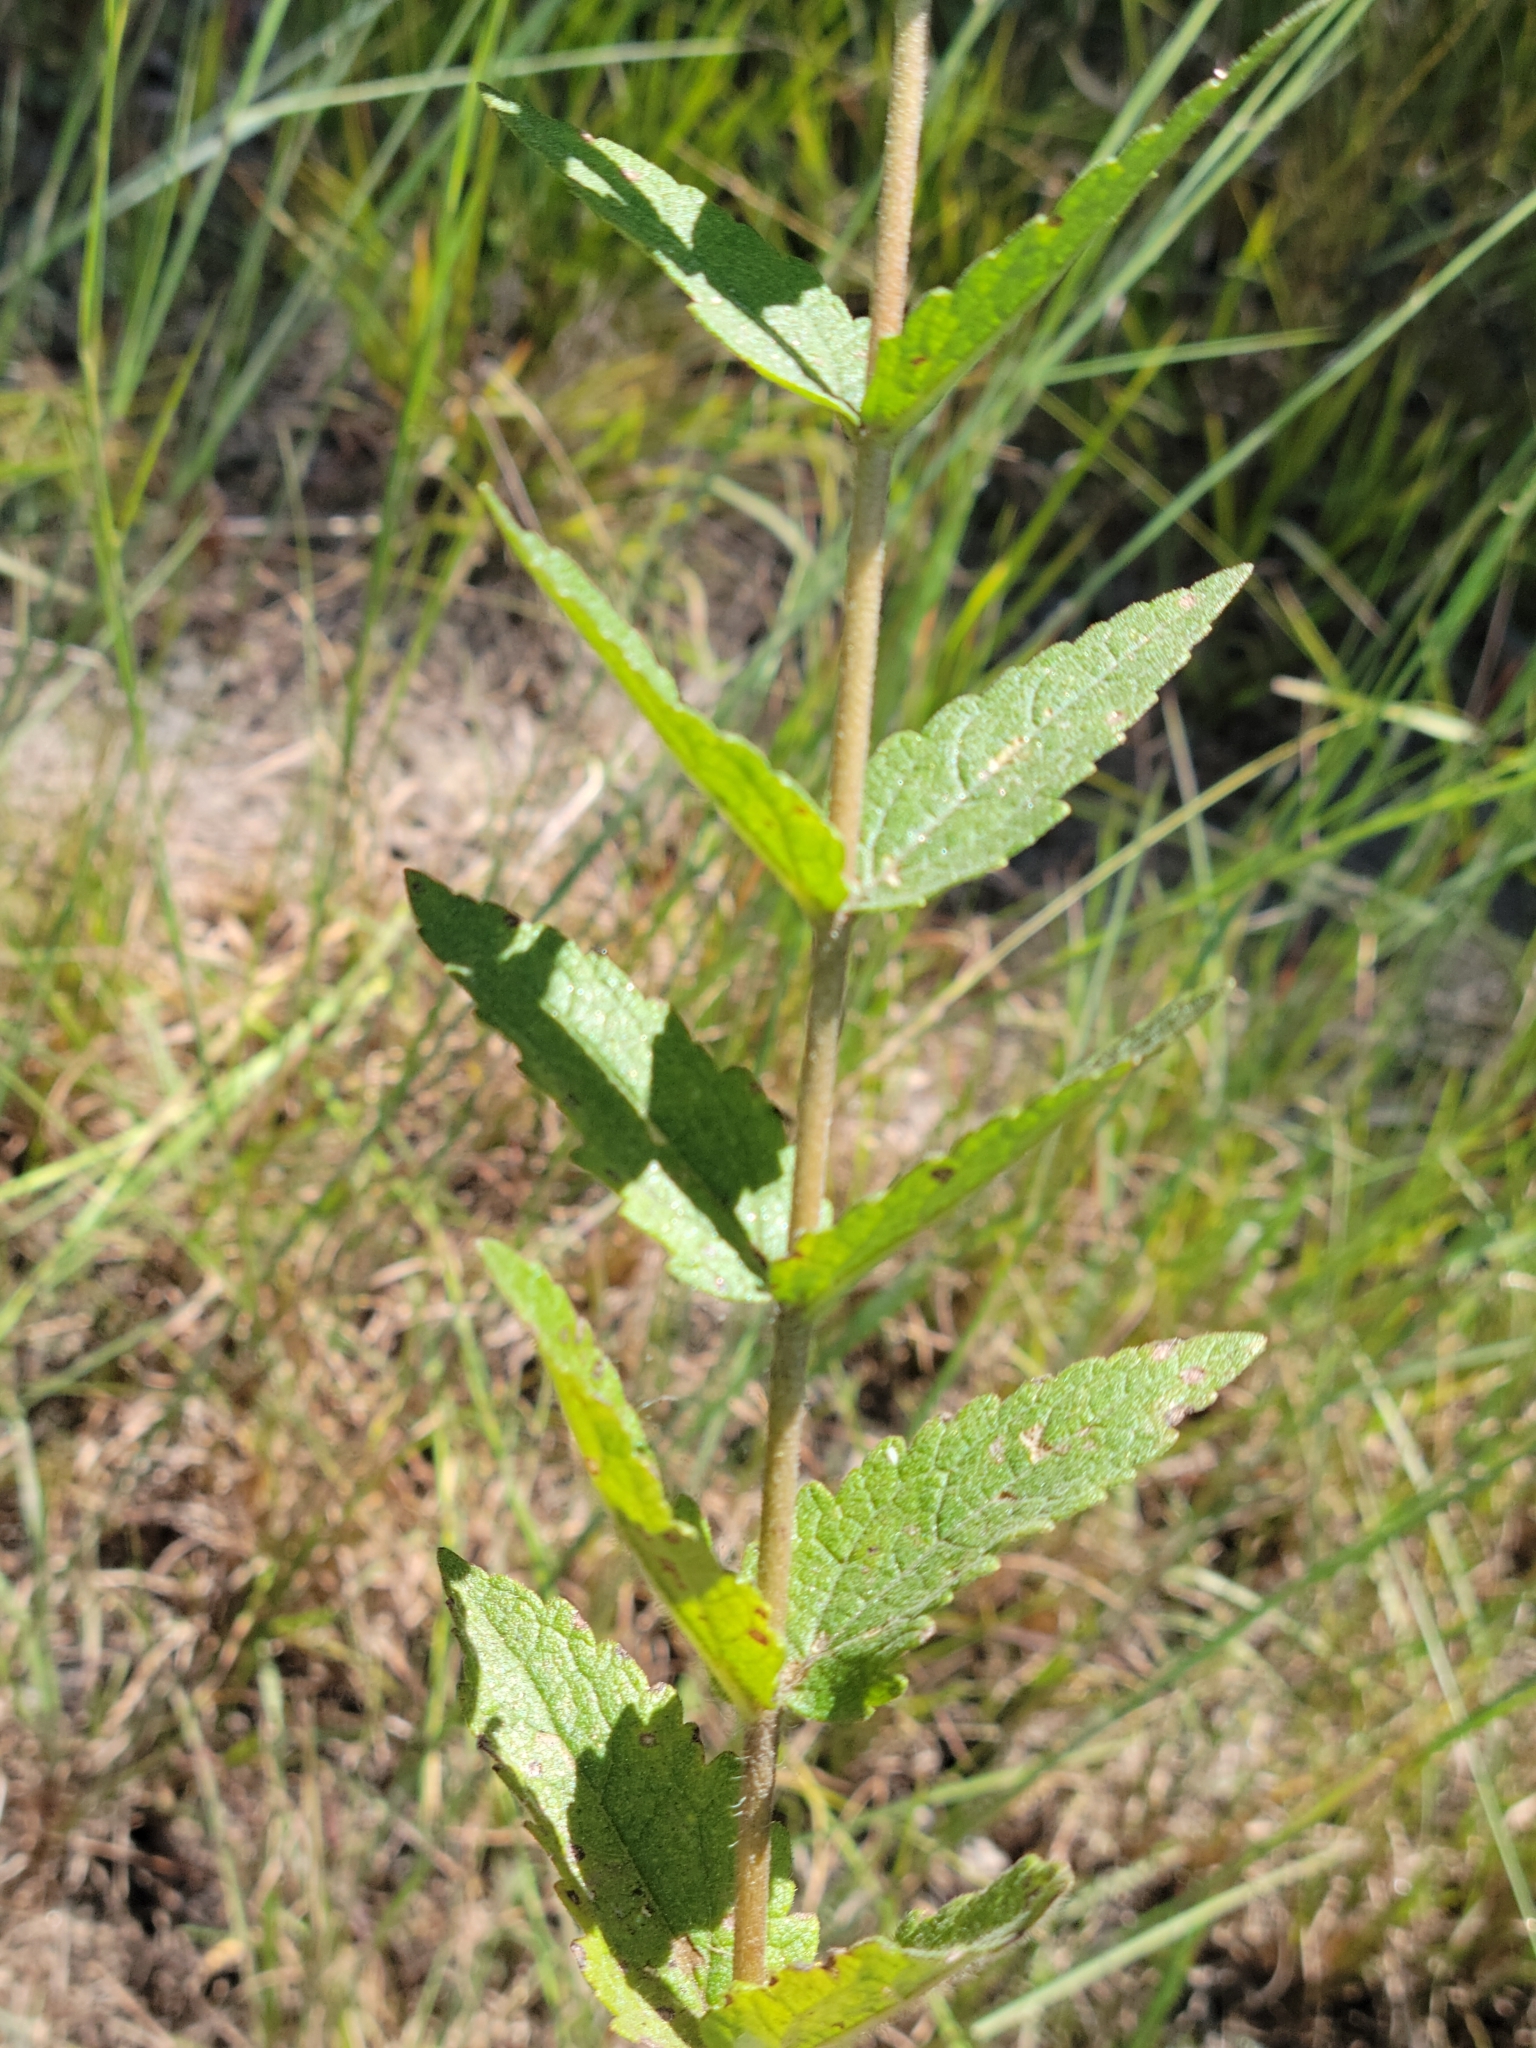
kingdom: Plantae
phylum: Tracheophyta
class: Magnoliopsida
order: Asterales
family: Asteraceae
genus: Eupatorium
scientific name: Eupatorium pilosum
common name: Rough boneset
